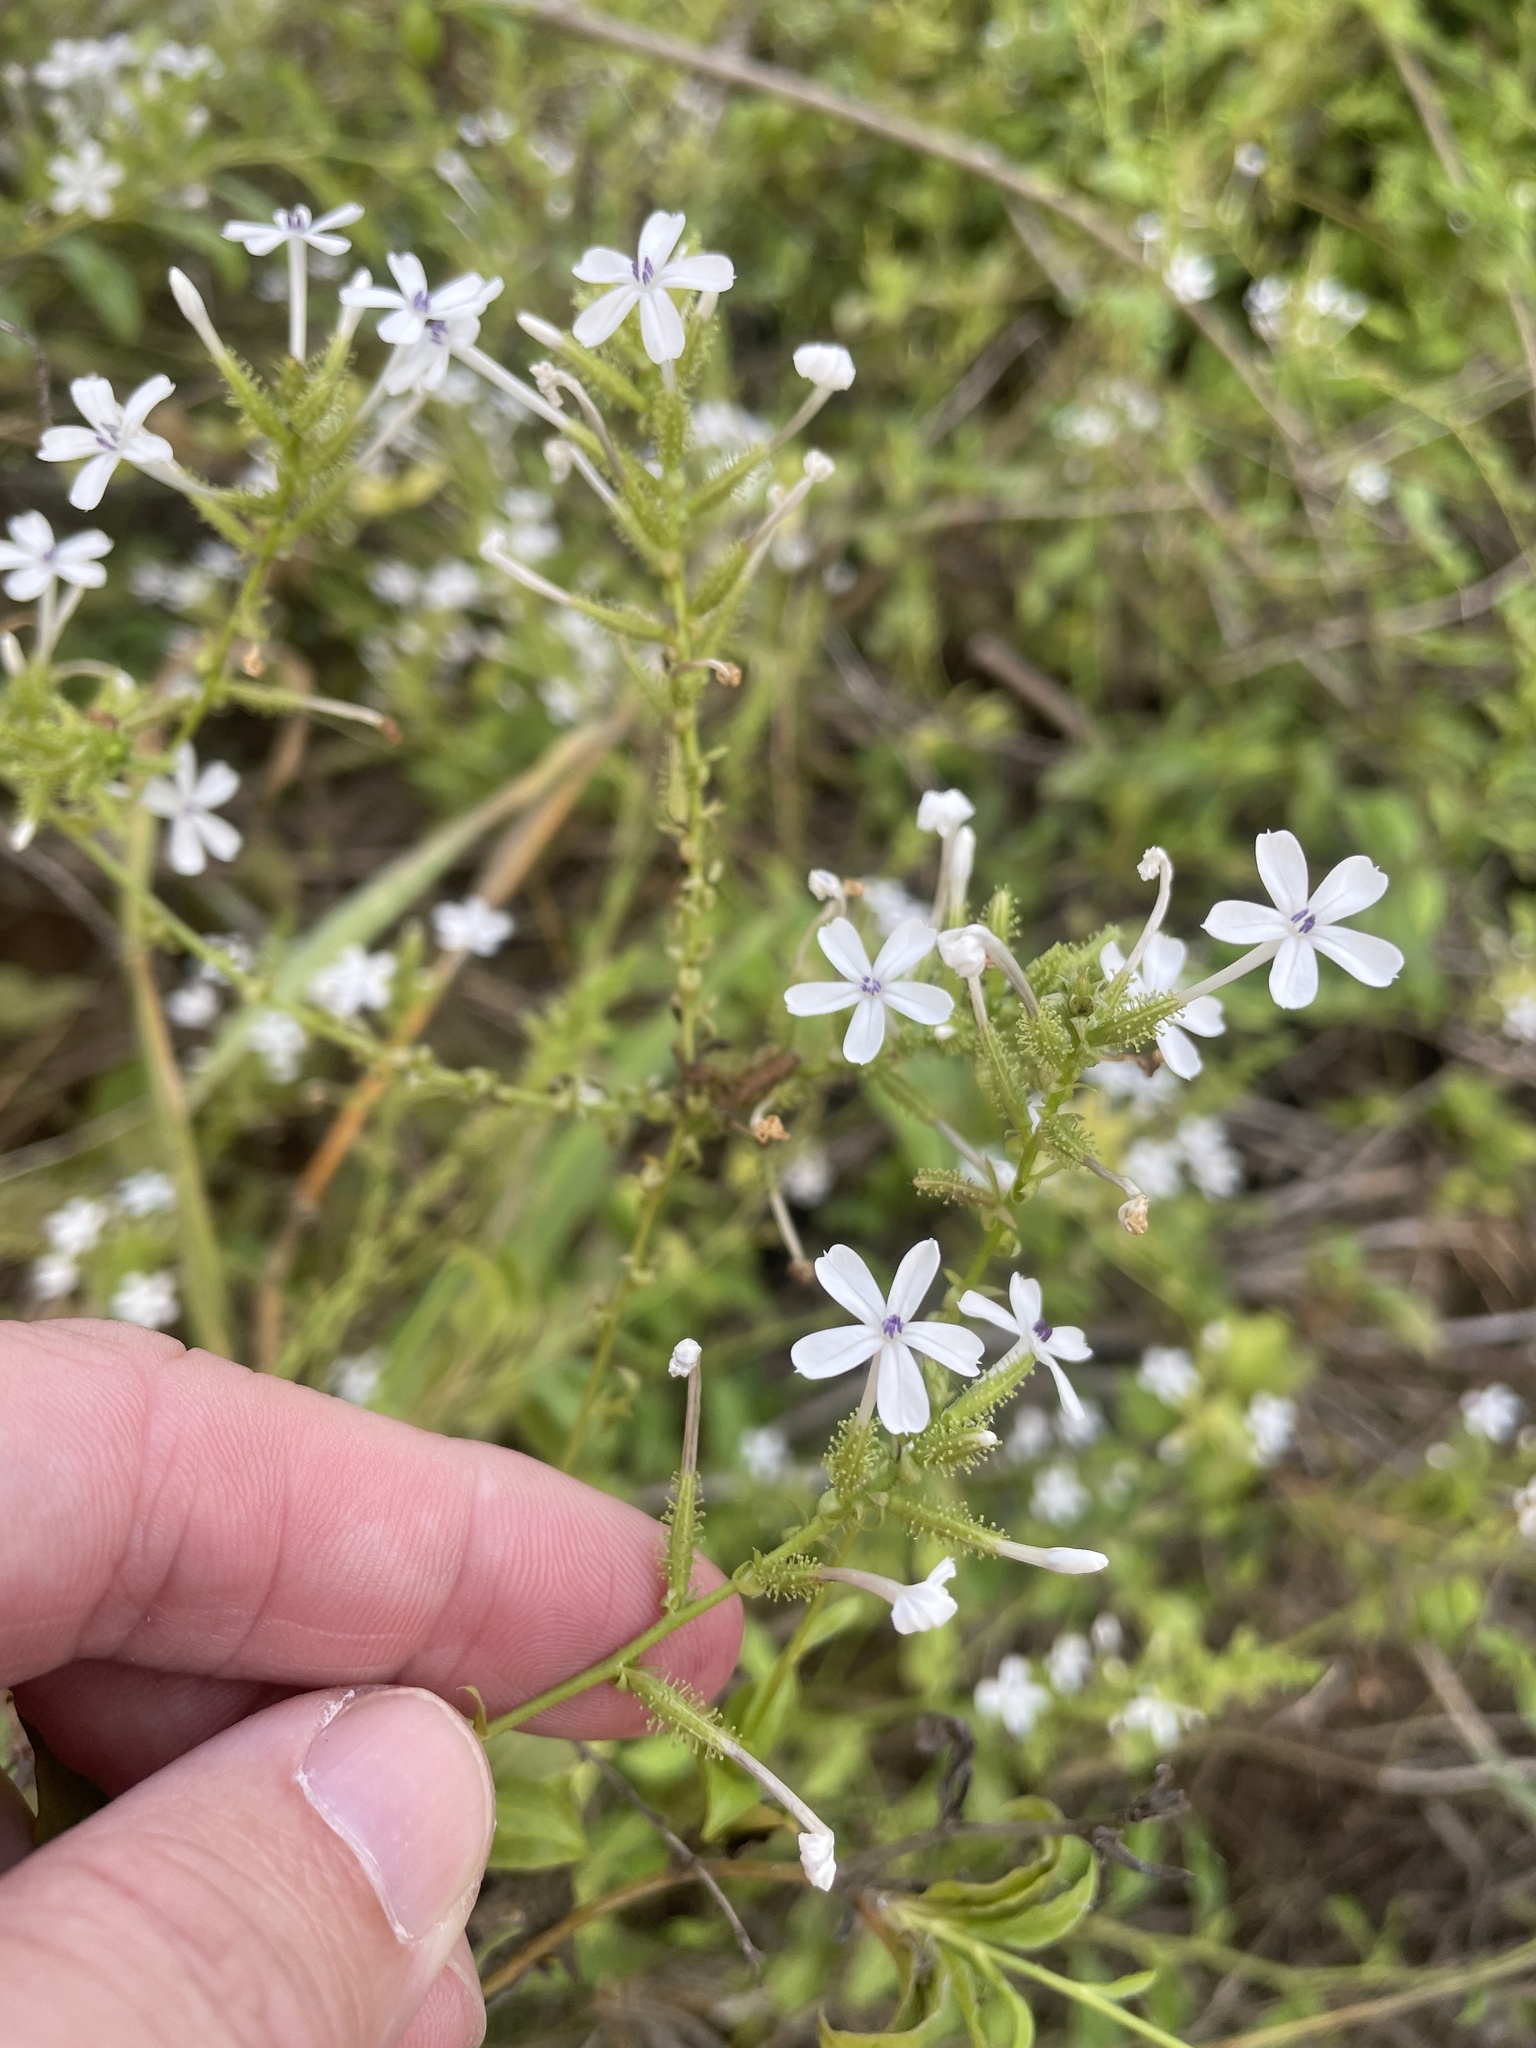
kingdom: Plantae
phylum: Tracheophyta
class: Magnoliopsida
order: Caryophyllales
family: Plumbaginaceae
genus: Plumbago
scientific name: Plumbago zeylanica
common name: Doctorbush
